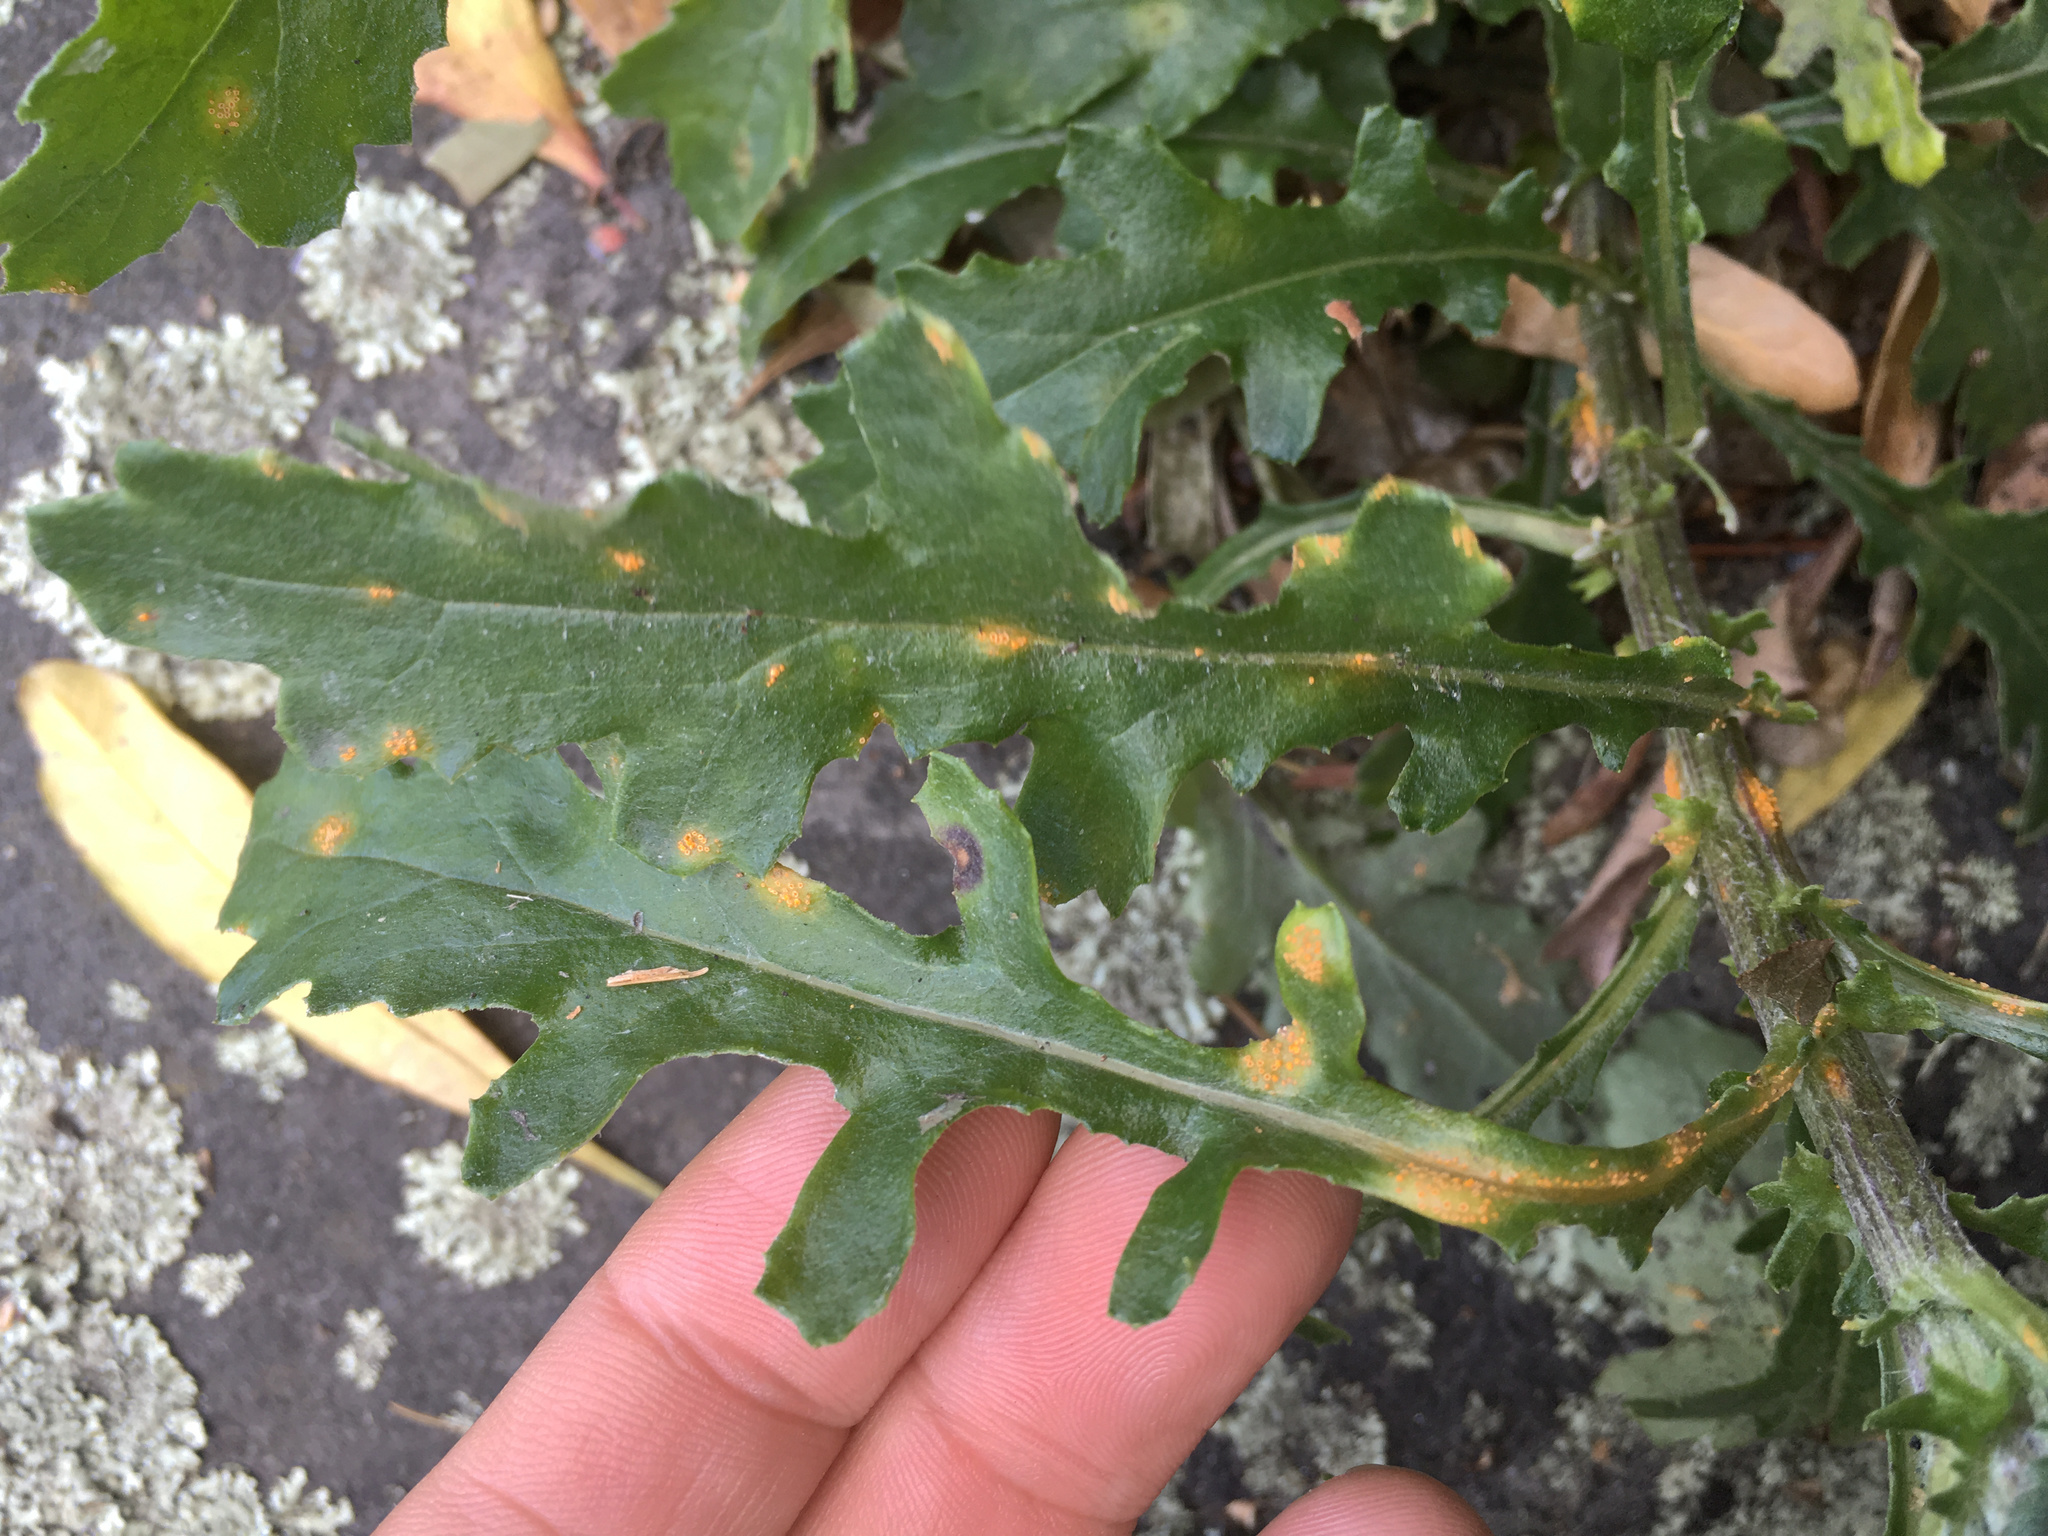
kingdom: Fungi
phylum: Basidiomycota
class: Pucciniomycetes
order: Pucciniales
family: Pucciniaceae
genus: Puccinia
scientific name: Puccinia lagenophorae
